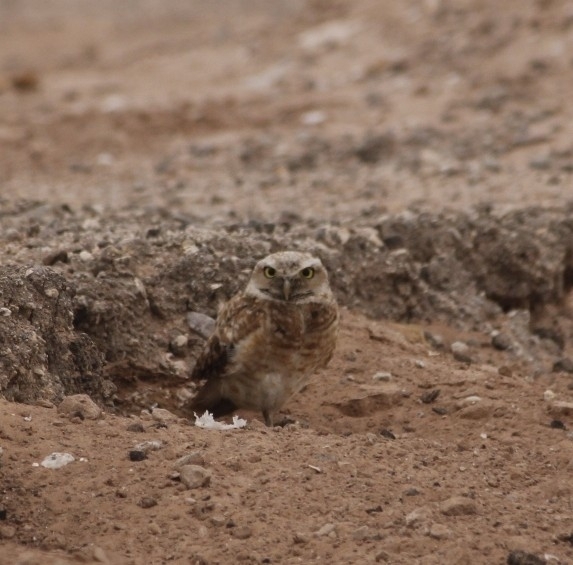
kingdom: Animalia
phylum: Chordata
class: Aves
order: Strigiformes
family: Strigidae
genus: Athene
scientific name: Athene cunicularia
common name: Burrowing owl
